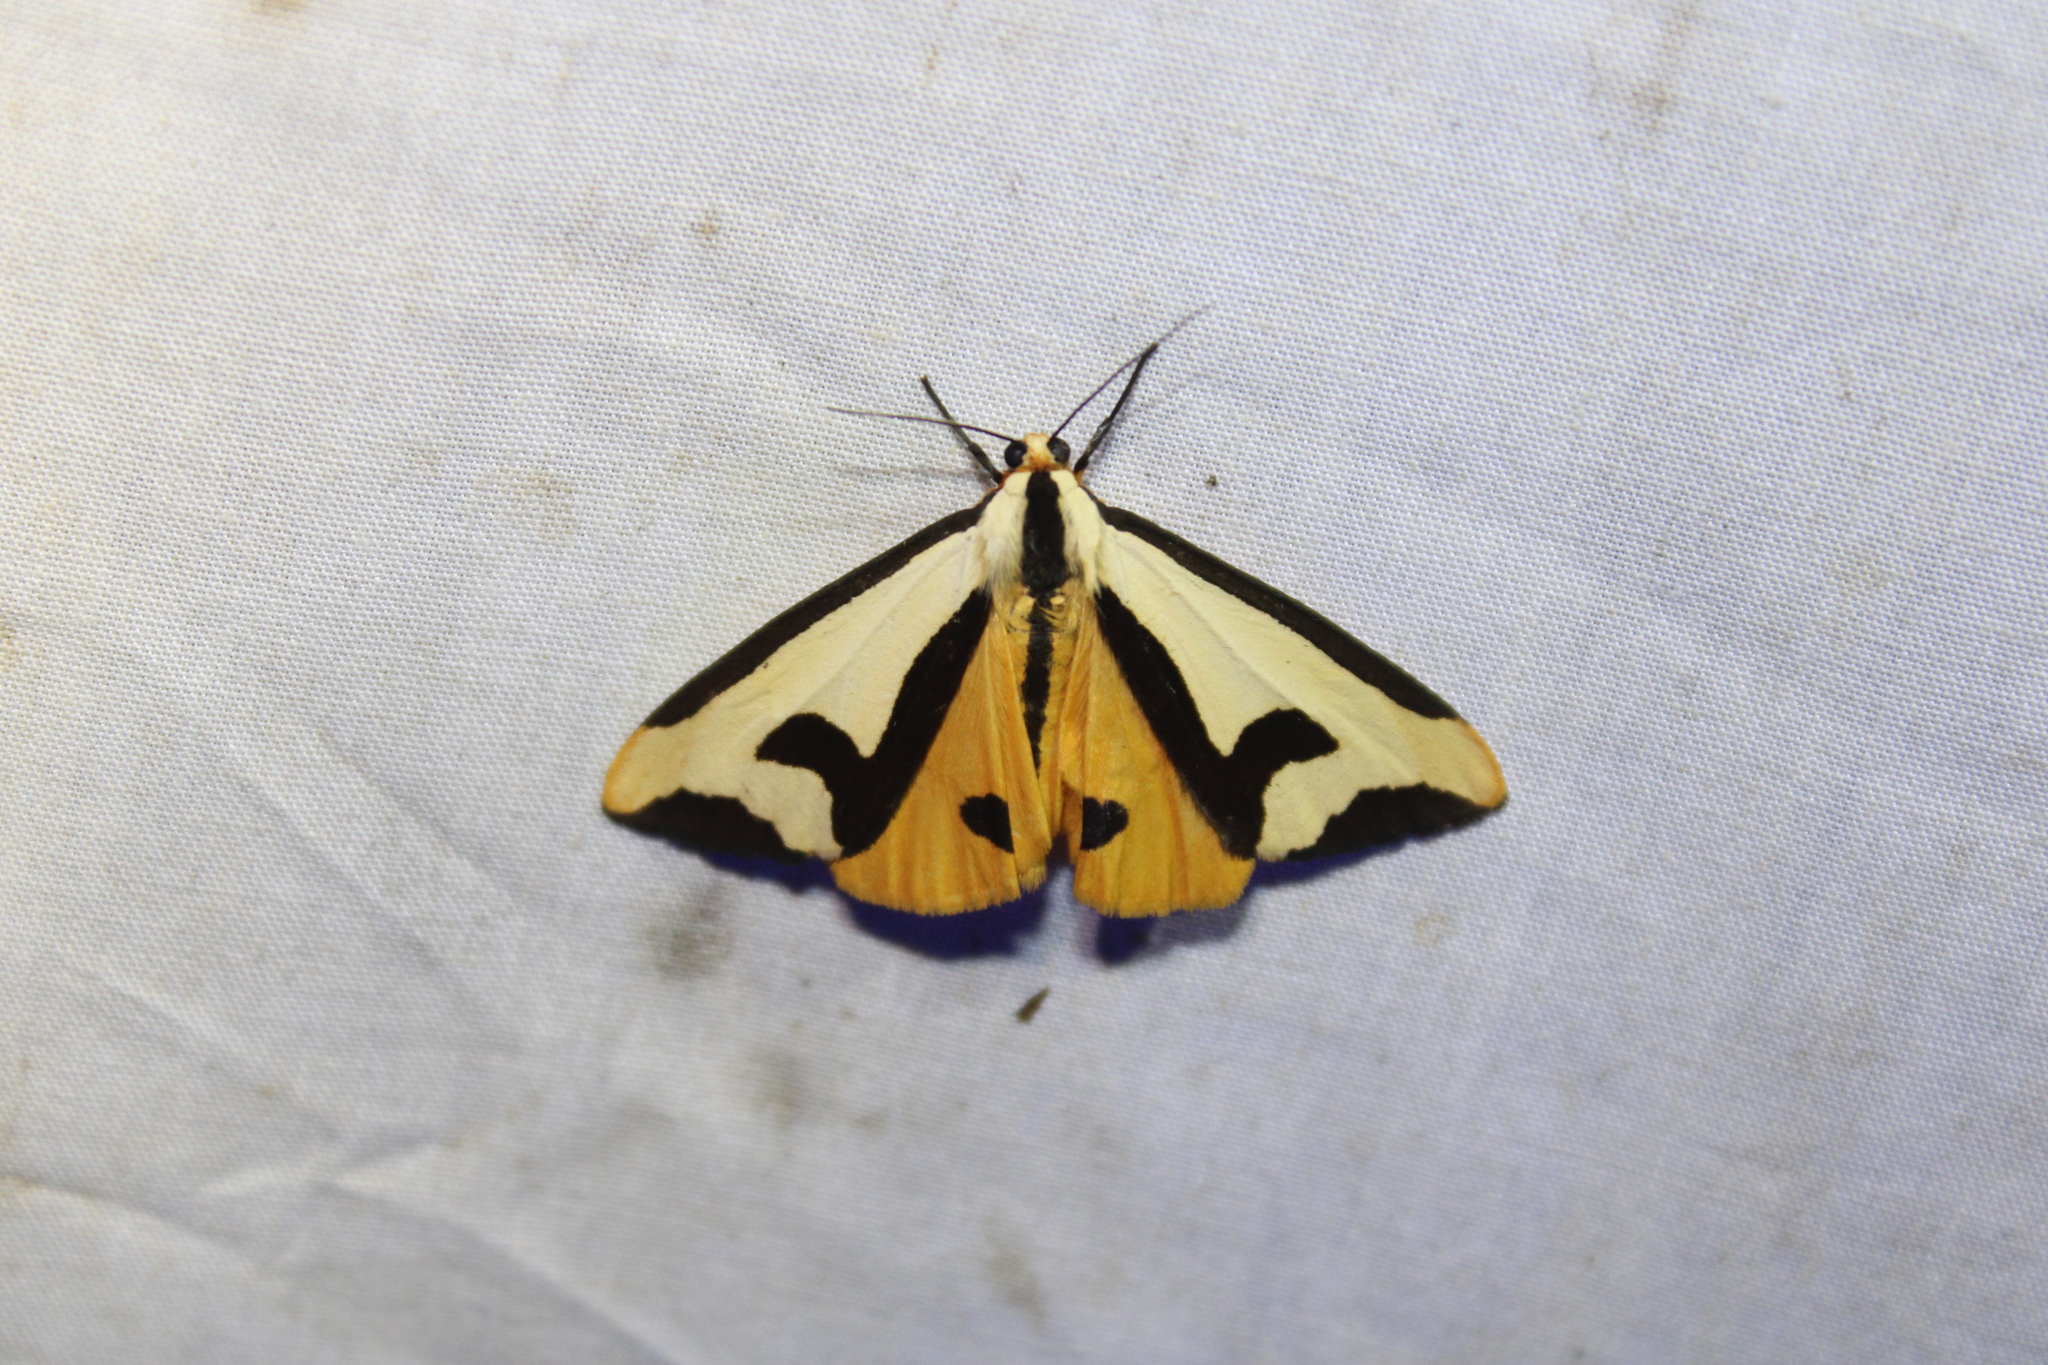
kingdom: Animalia
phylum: Arthropoda
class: Insecta
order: Lepidoptera
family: Erebidae
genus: Haploa
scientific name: Haploa clymene
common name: Clymene moth
